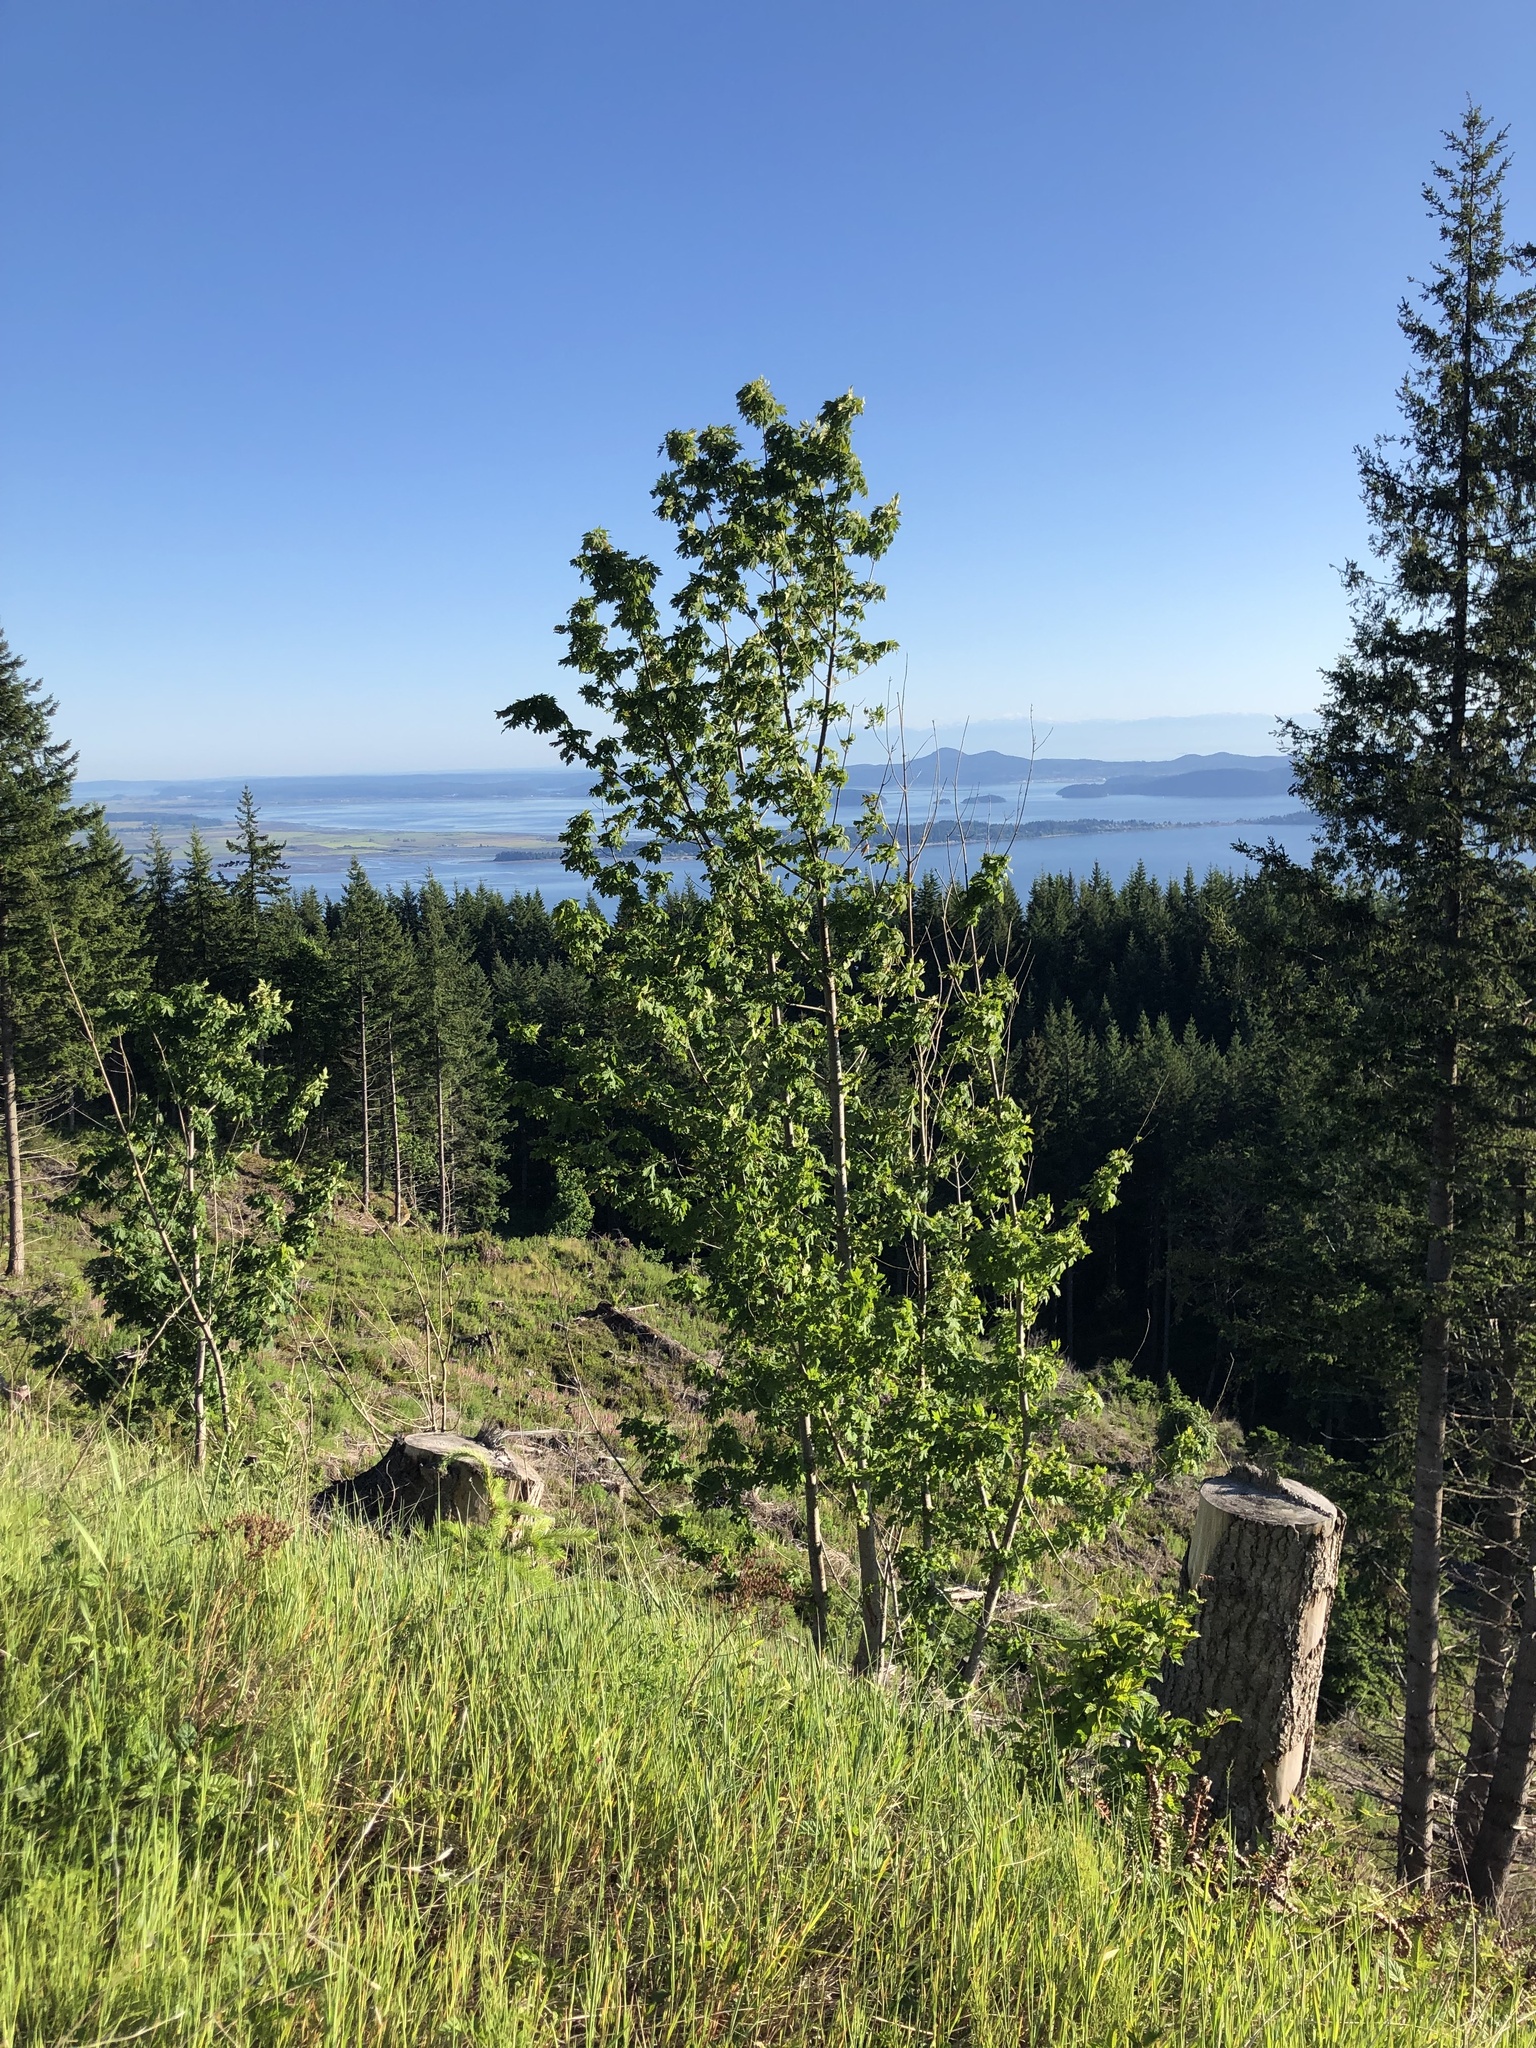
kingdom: Plantae
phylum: Tracheophyta
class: Magnoliopsida
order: Sapindales
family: Sapindaceae
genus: Acer
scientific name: Acer macrophyllum
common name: Oregon maple
